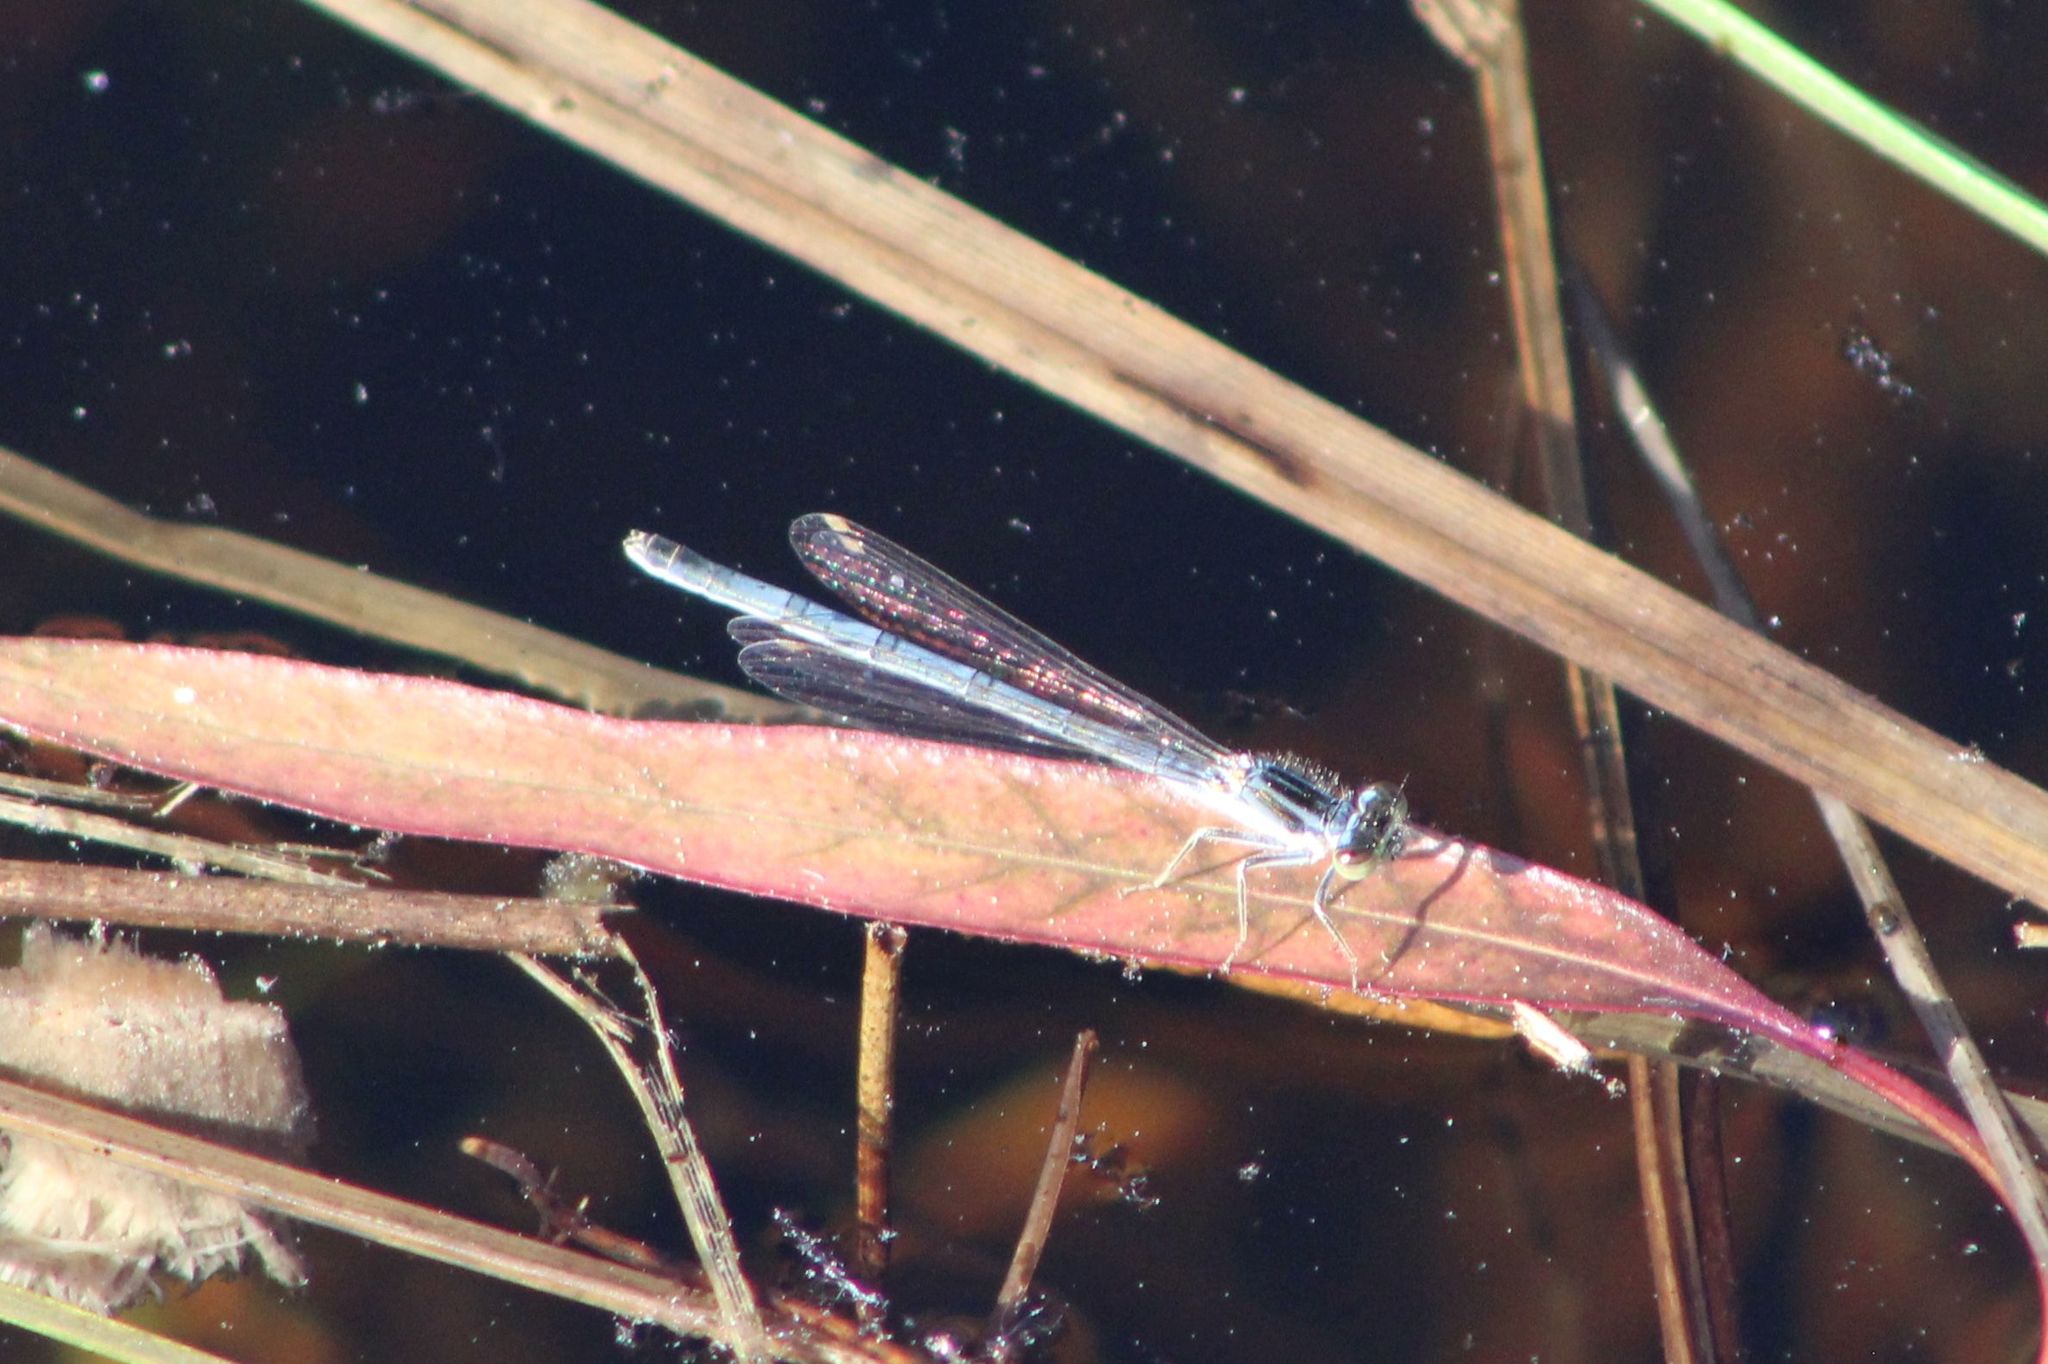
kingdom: Animalia
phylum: Arthropoda
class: Insecta
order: Odonata
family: Coenagrionidae
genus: Ischnura
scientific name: Ischnura verticalis
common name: Eastern forktail
